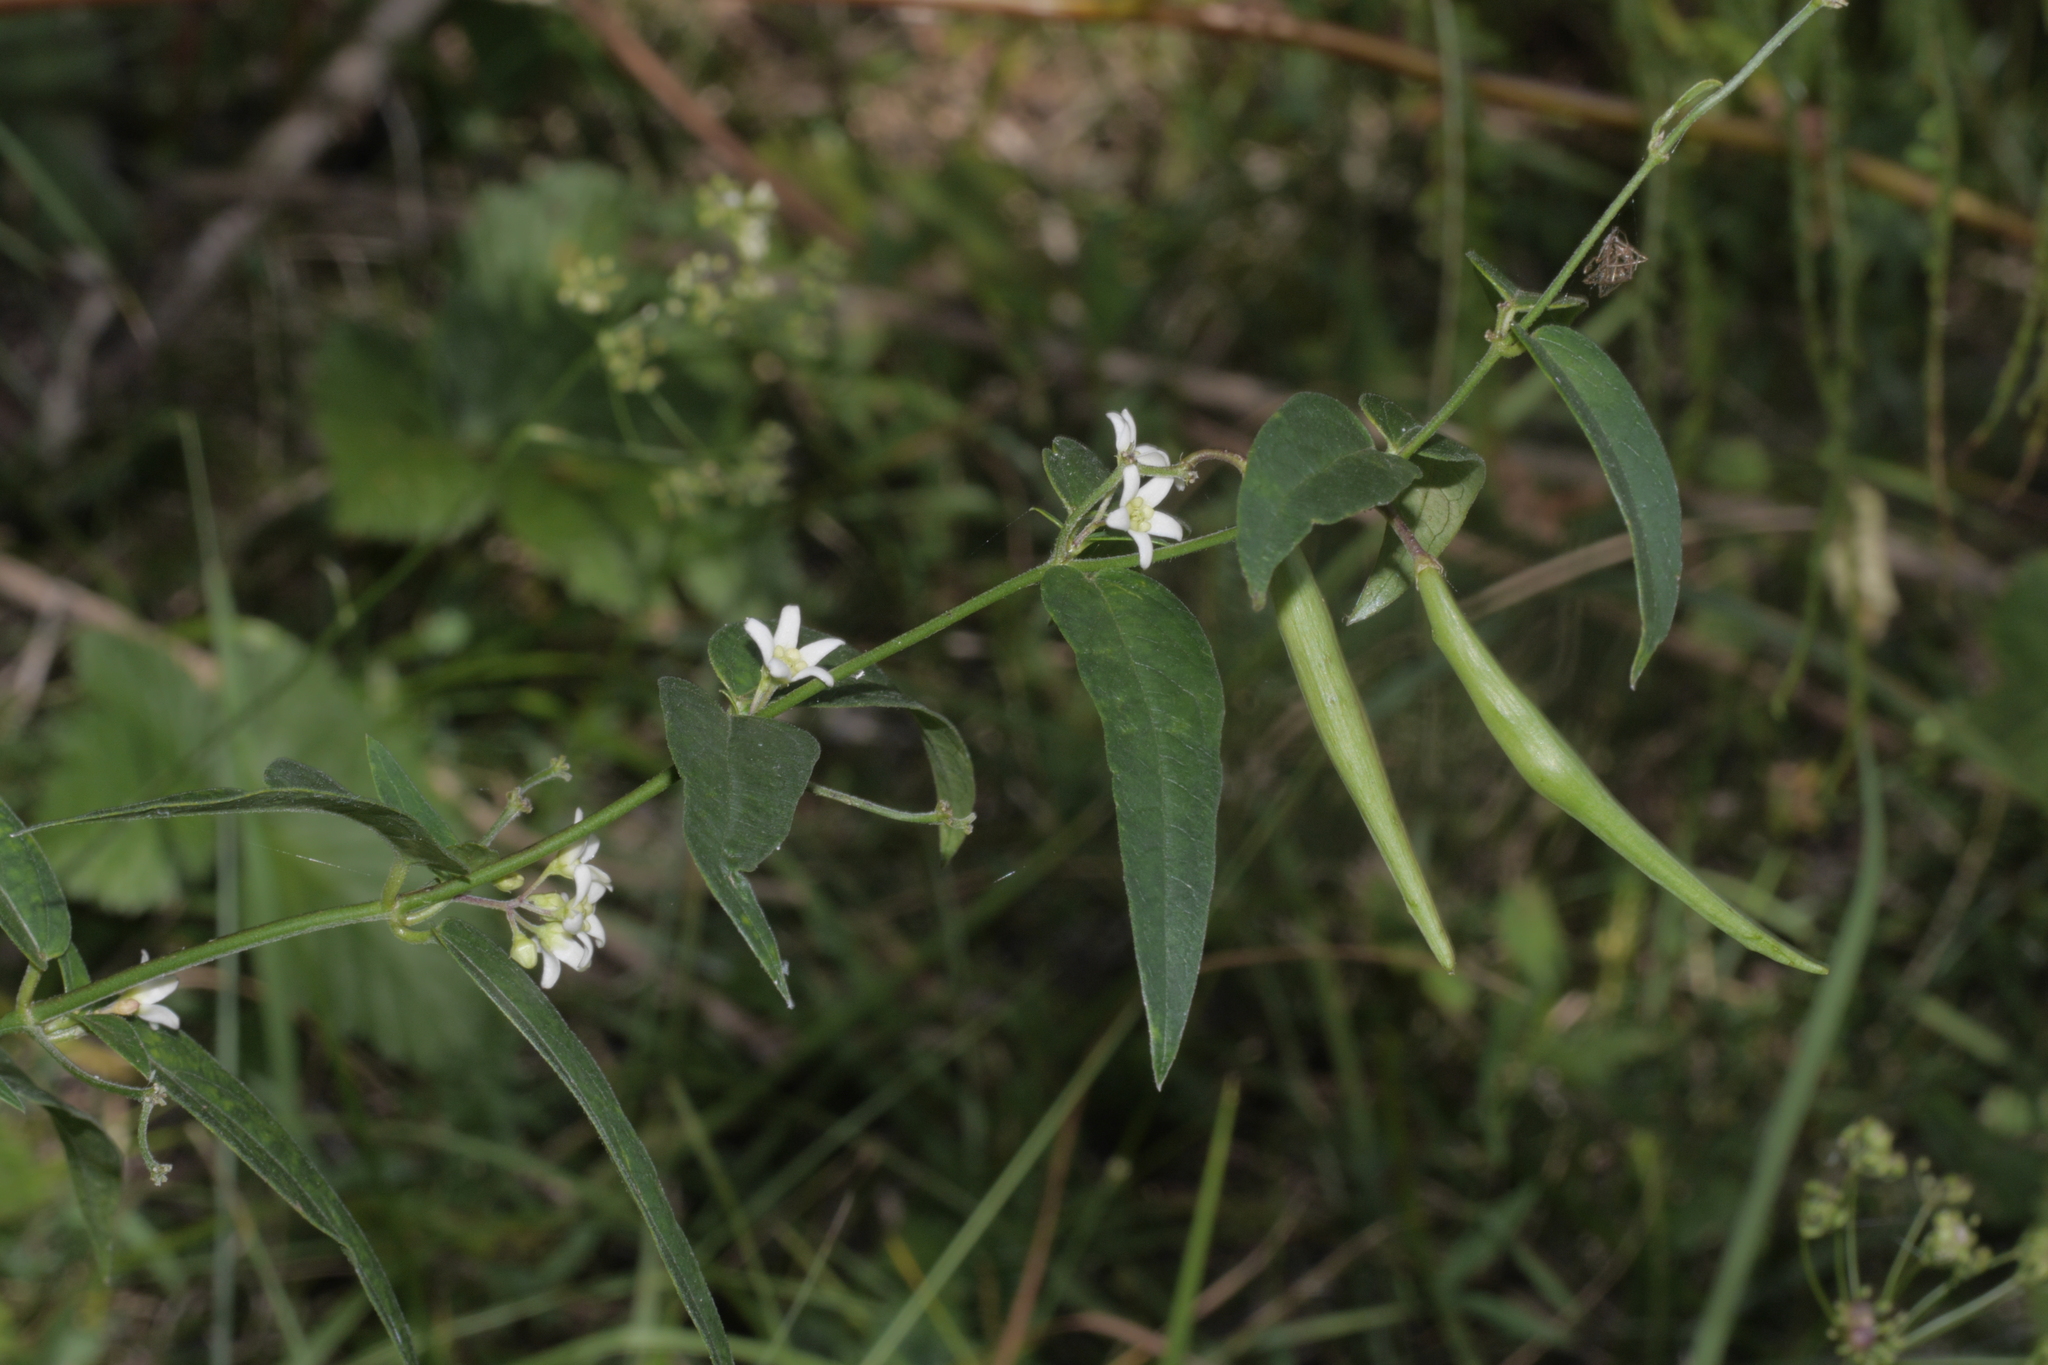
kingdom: Plantae
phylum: Tracheophyta
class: Magnoliopsida
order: Gentianales
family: Apocynaceae
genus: Vincetoxicum
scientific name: Vincetoxicum hirundinaria
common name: White swallowwort
